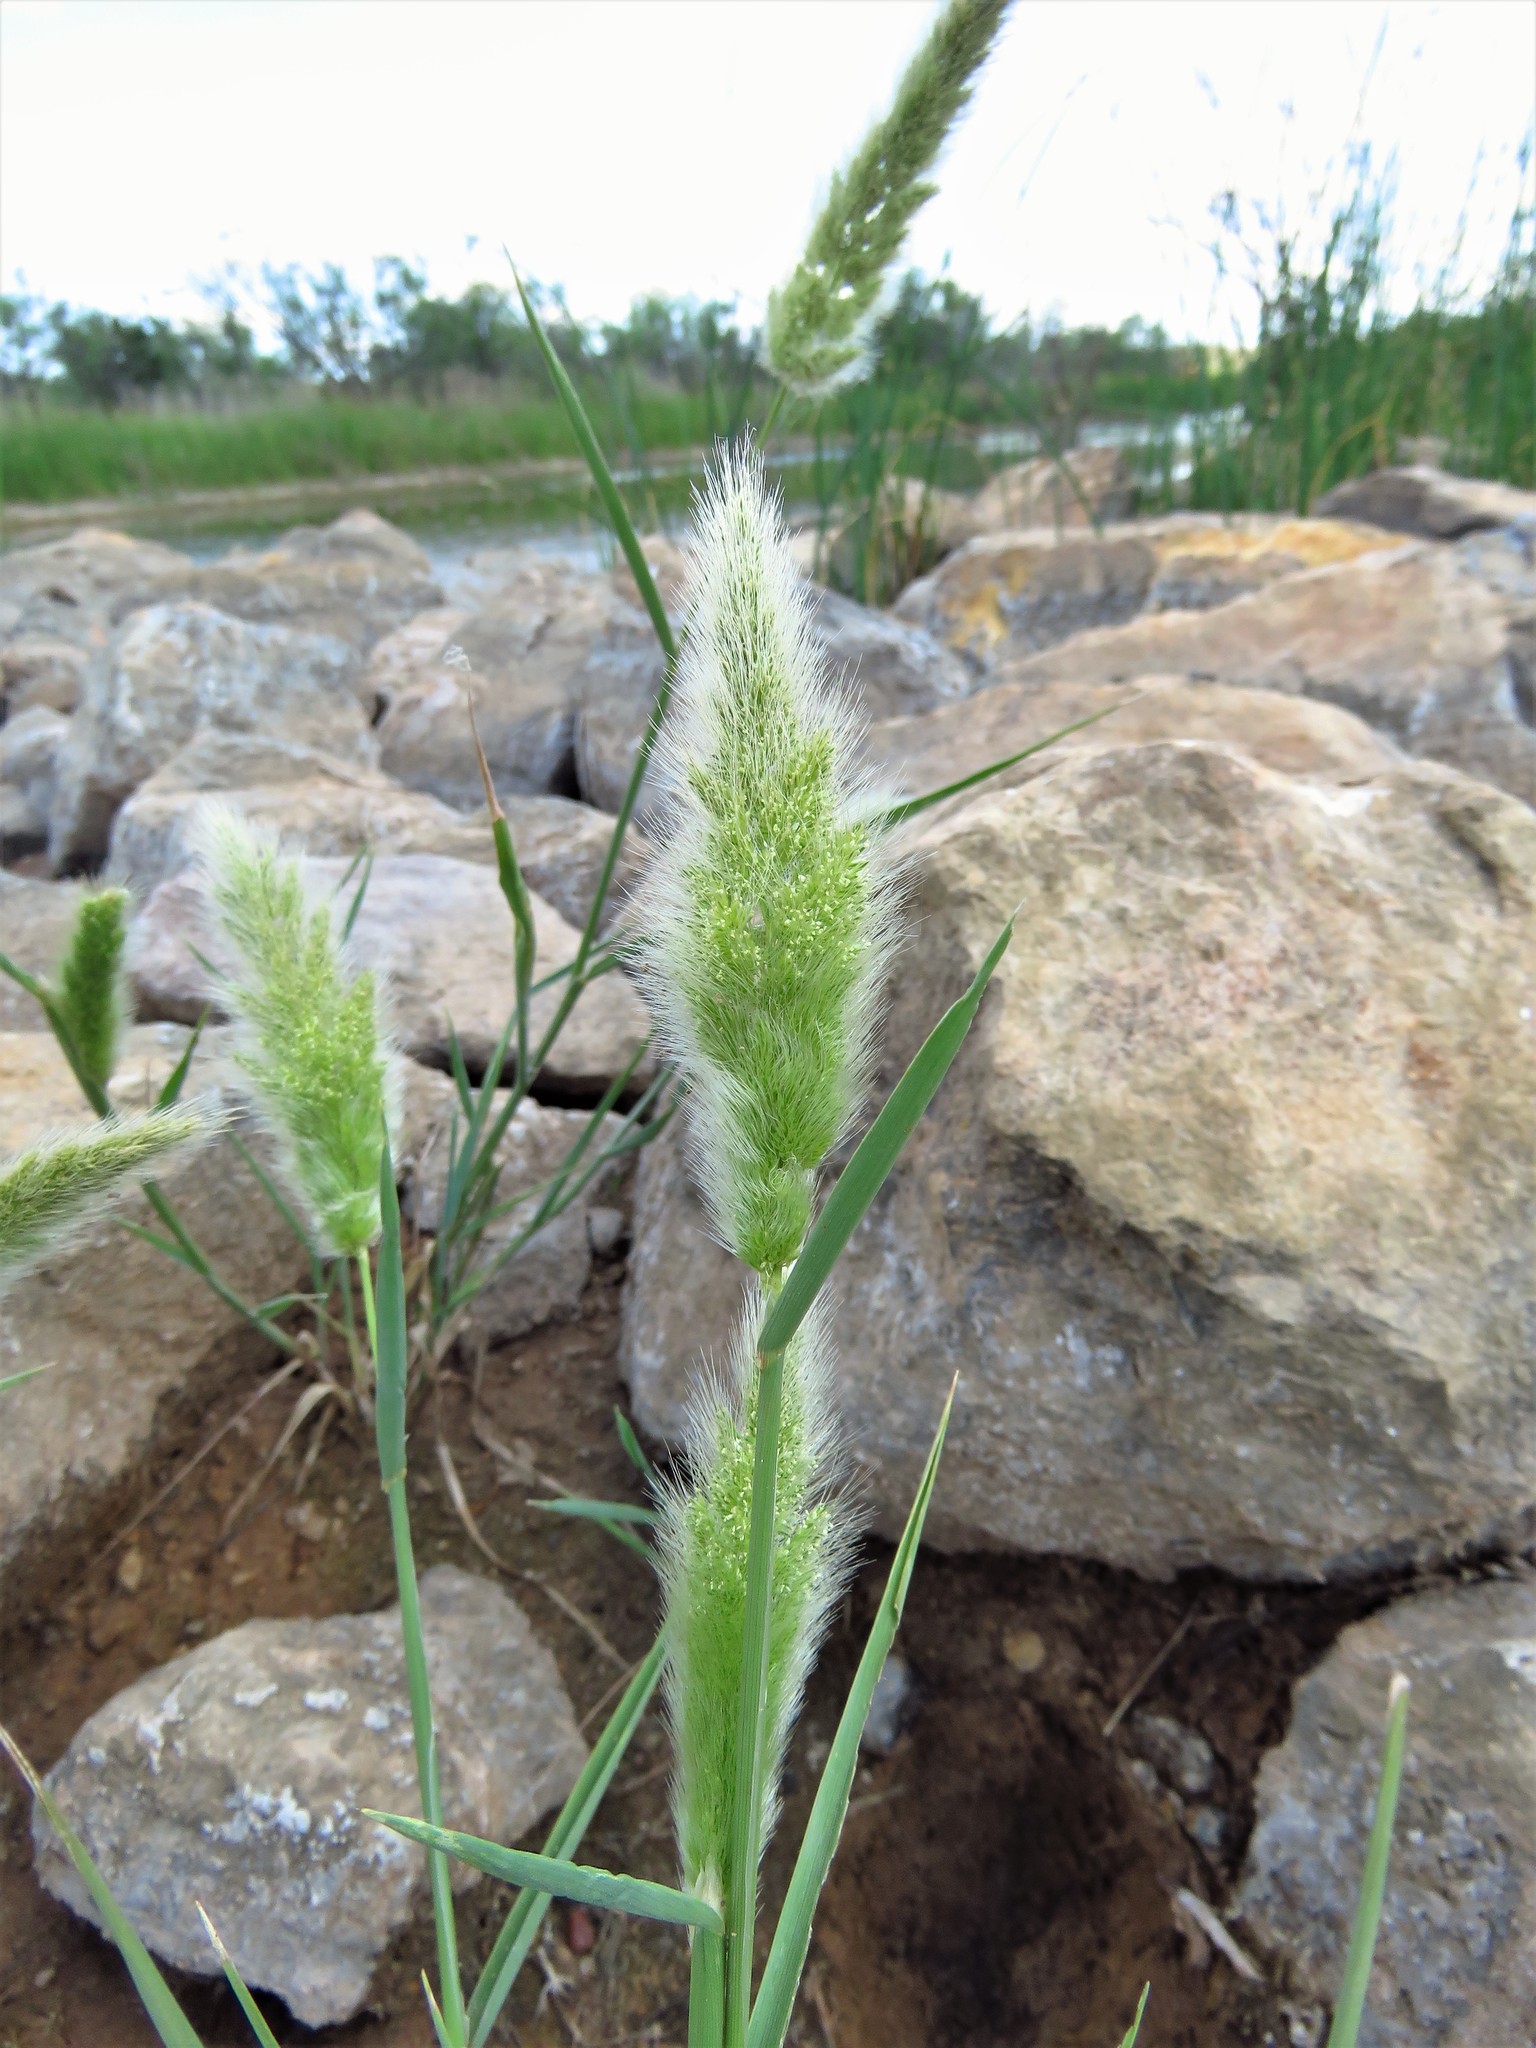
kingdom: Plantae
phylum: Tracheophyta
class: Liliopsida
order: Poales
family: Poaceae
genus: Polypogon
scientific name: Polypogon monspeliensis
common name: Annual rabbitsfoot grass
